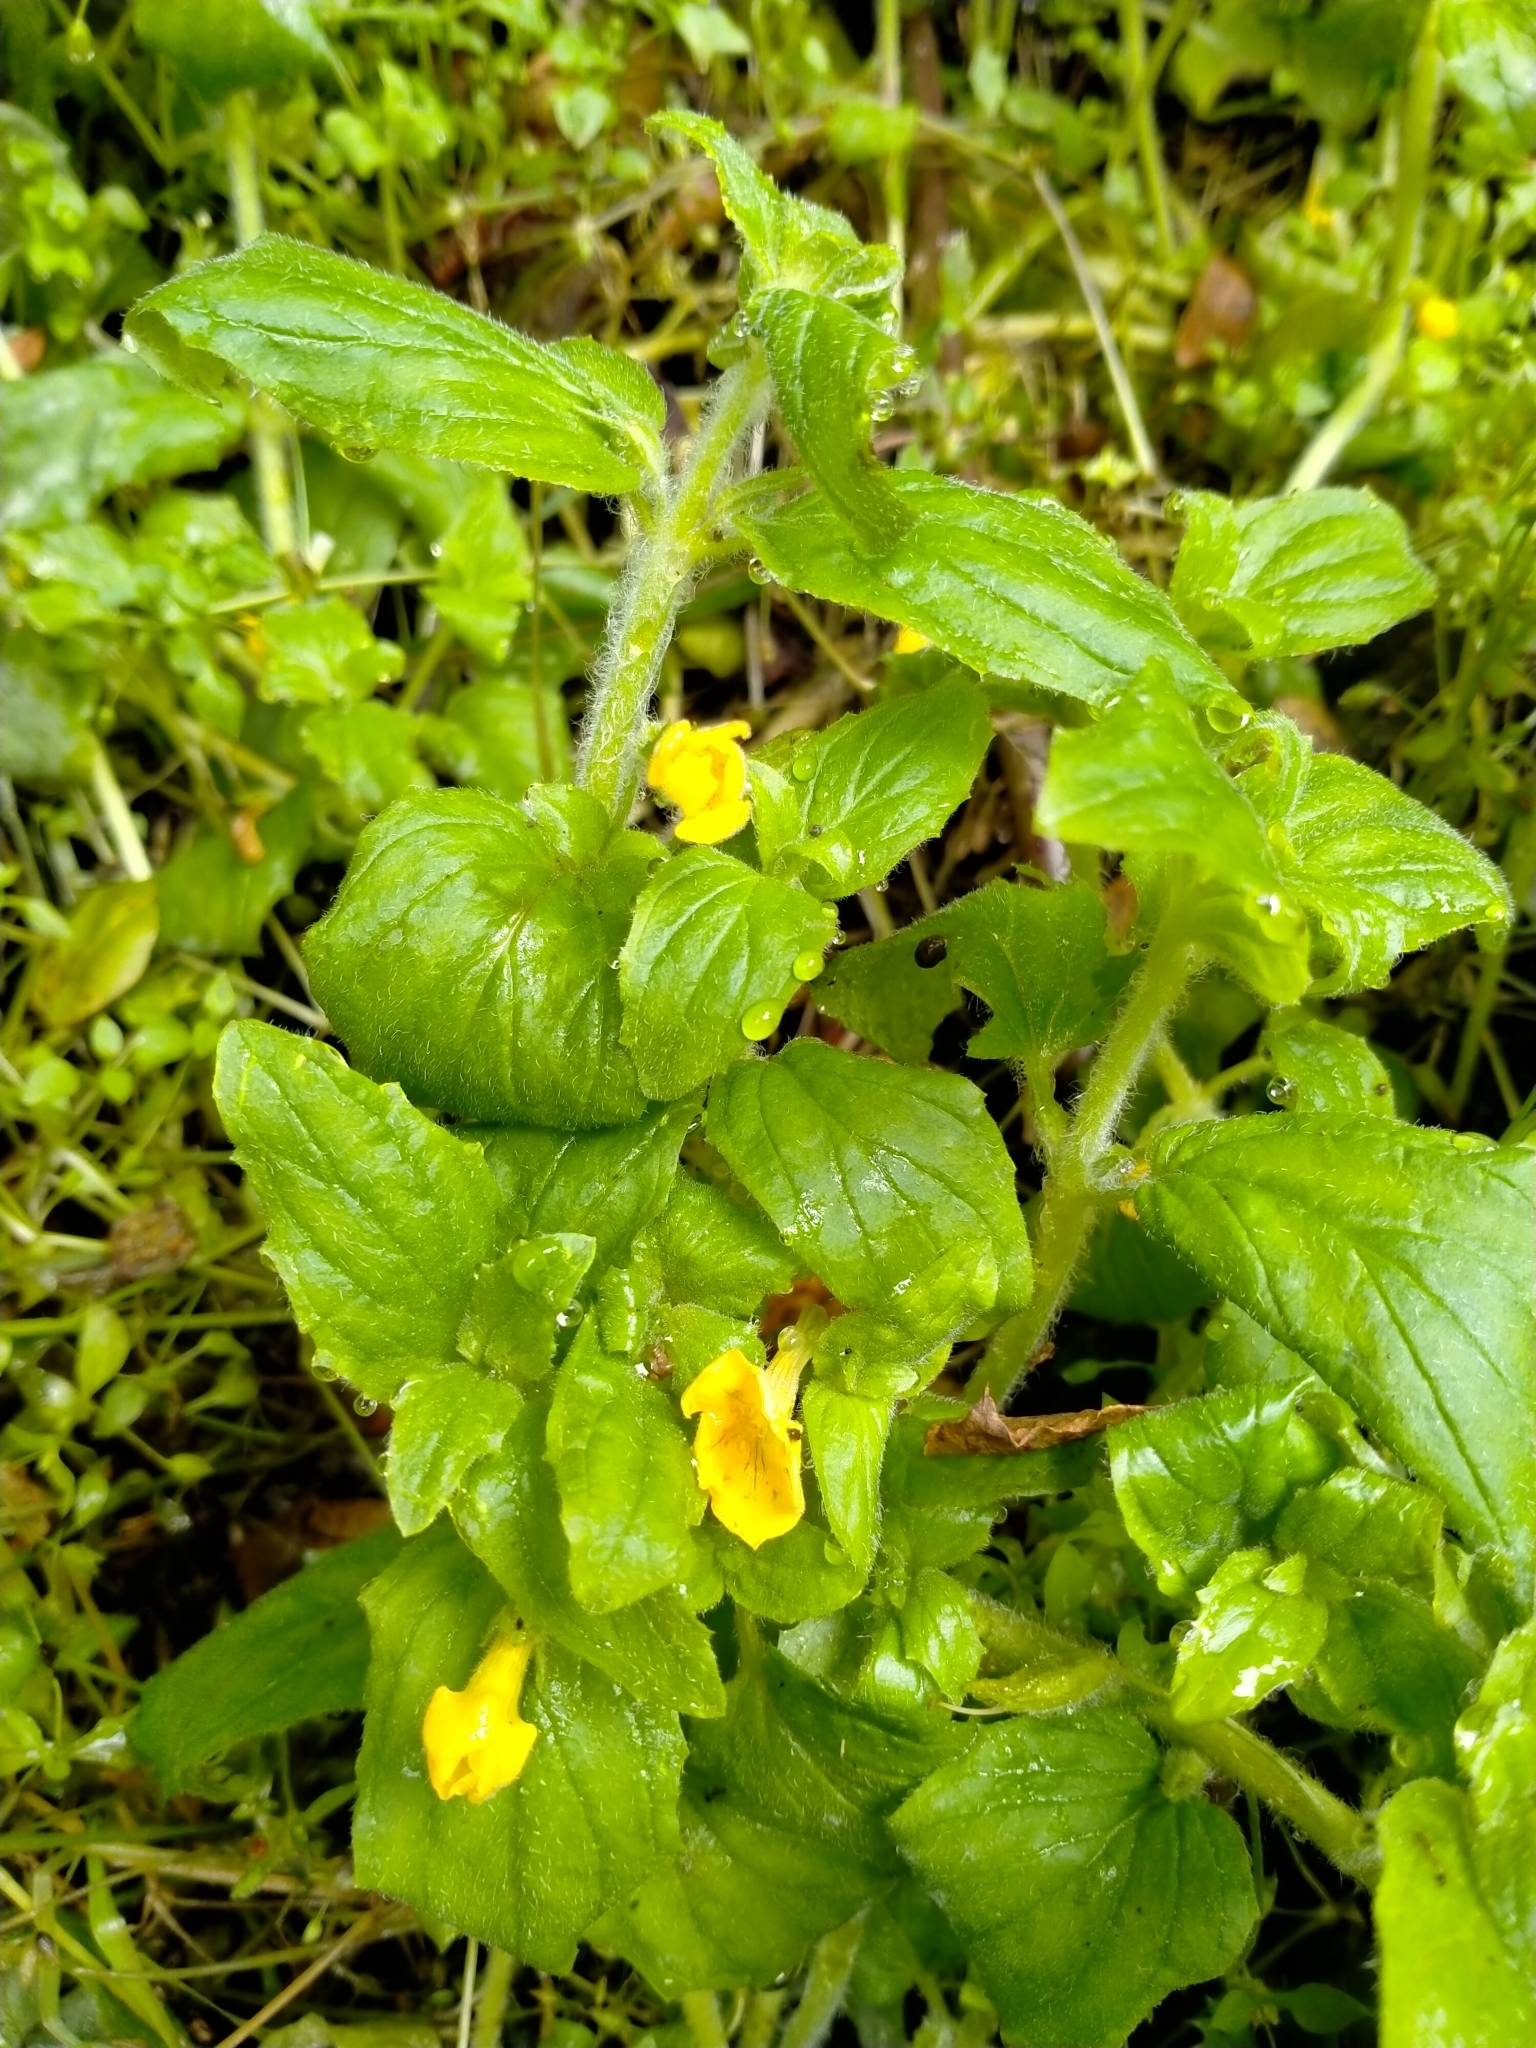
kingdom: Plantae
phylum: Tracheophyta
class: Magnoliopsida
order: Lamiales
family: Phrymaceae
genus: Erythranthe
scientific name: Erythranthe moschata
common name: Muskflower
